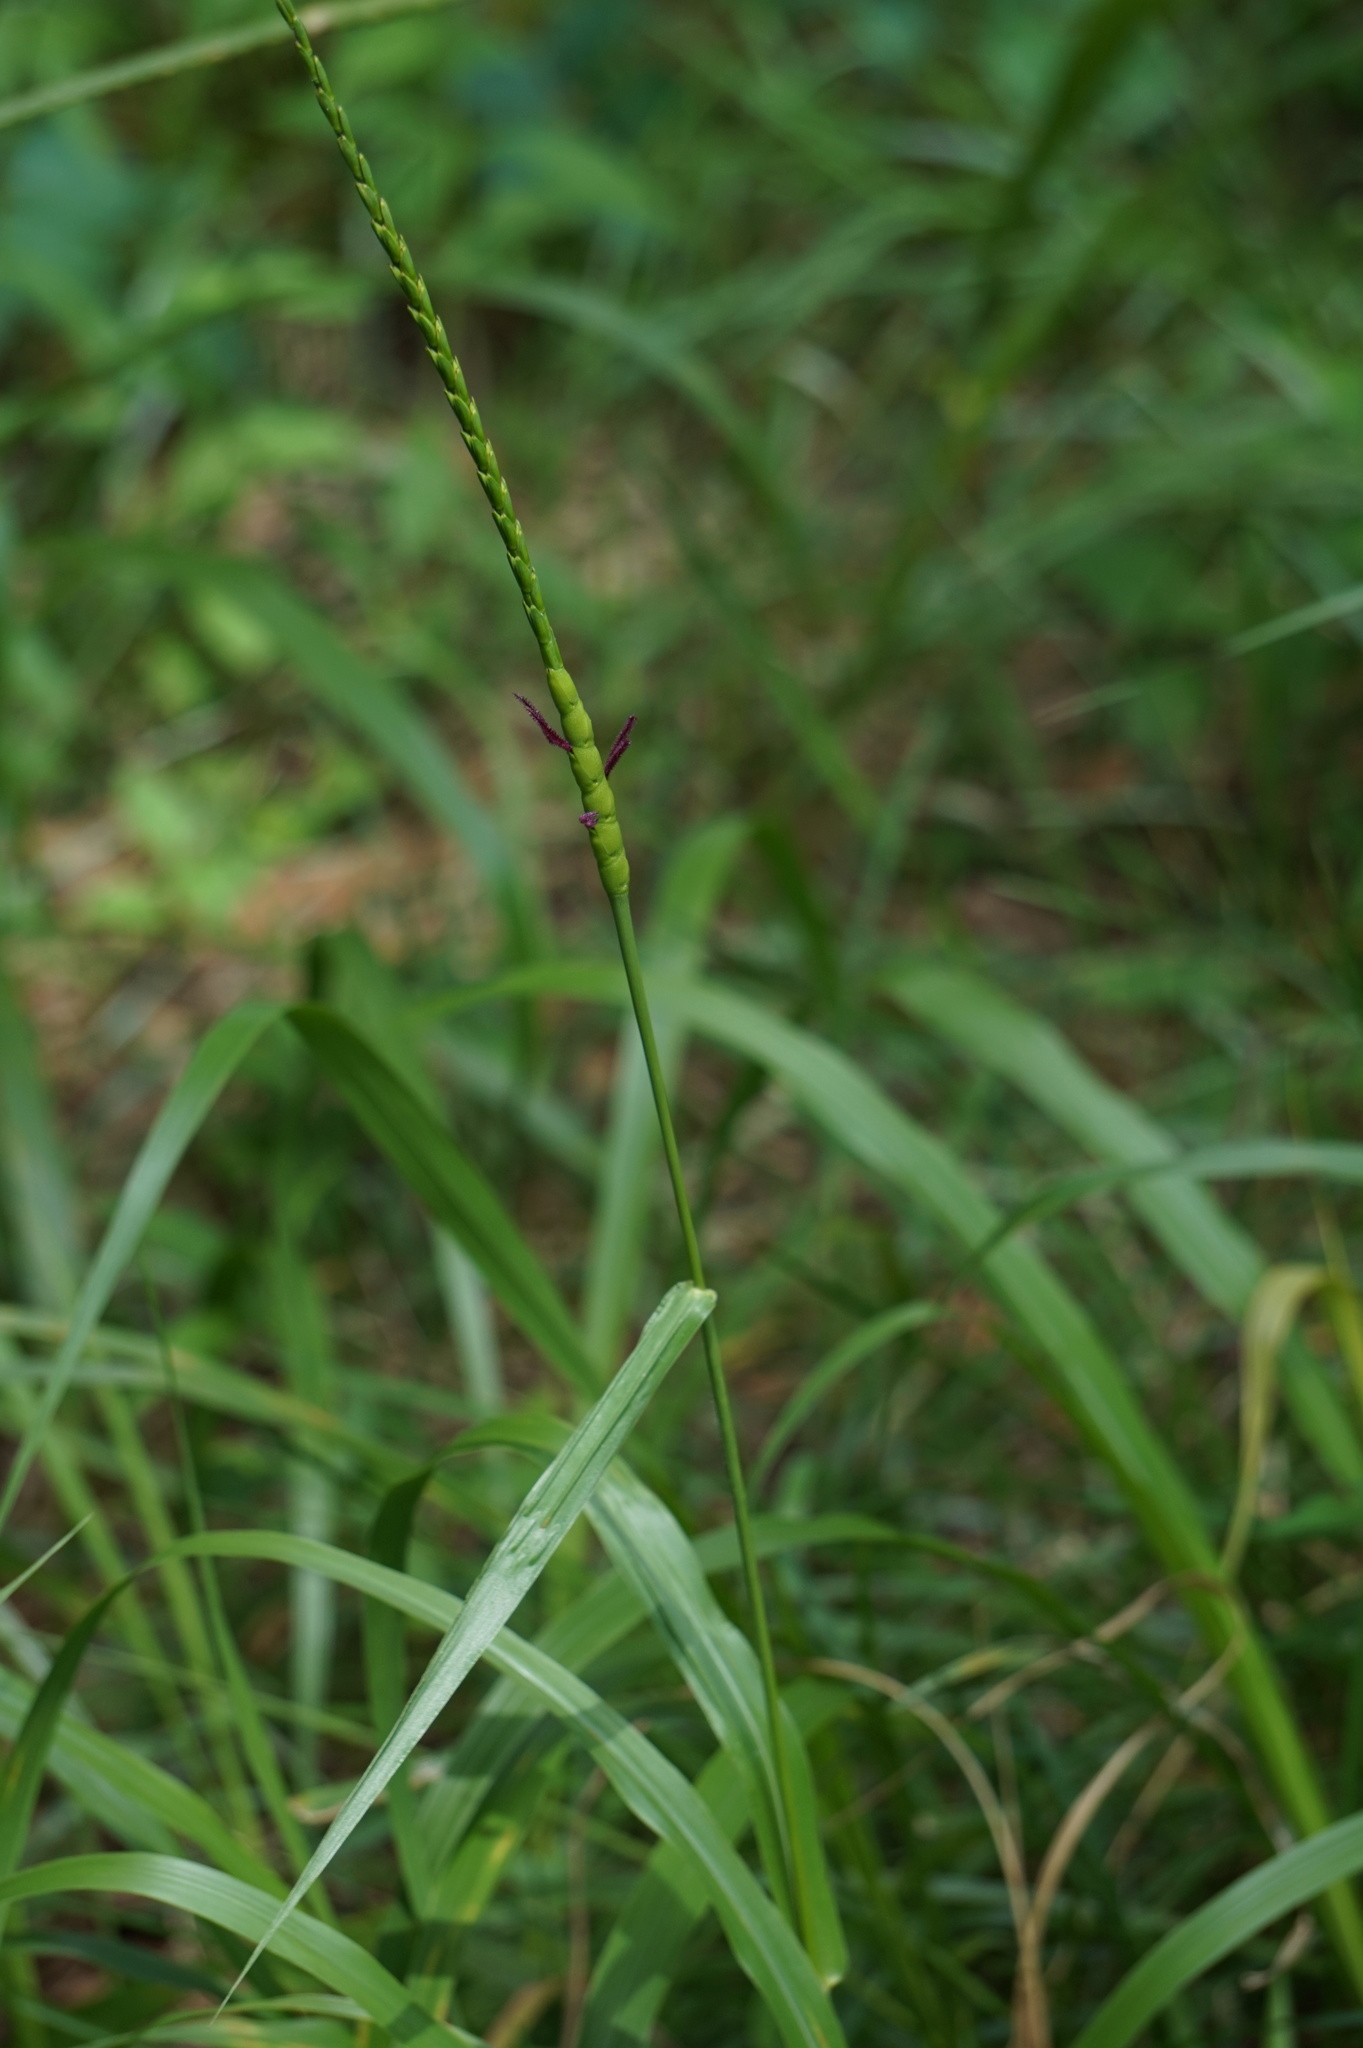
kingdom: Plantae
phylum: Tracheophyta
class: Liliopsida
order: Poales
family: Poaceae
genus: Tripsacum
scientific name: Tripsacum dactyloides
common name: Buffalo-grass
